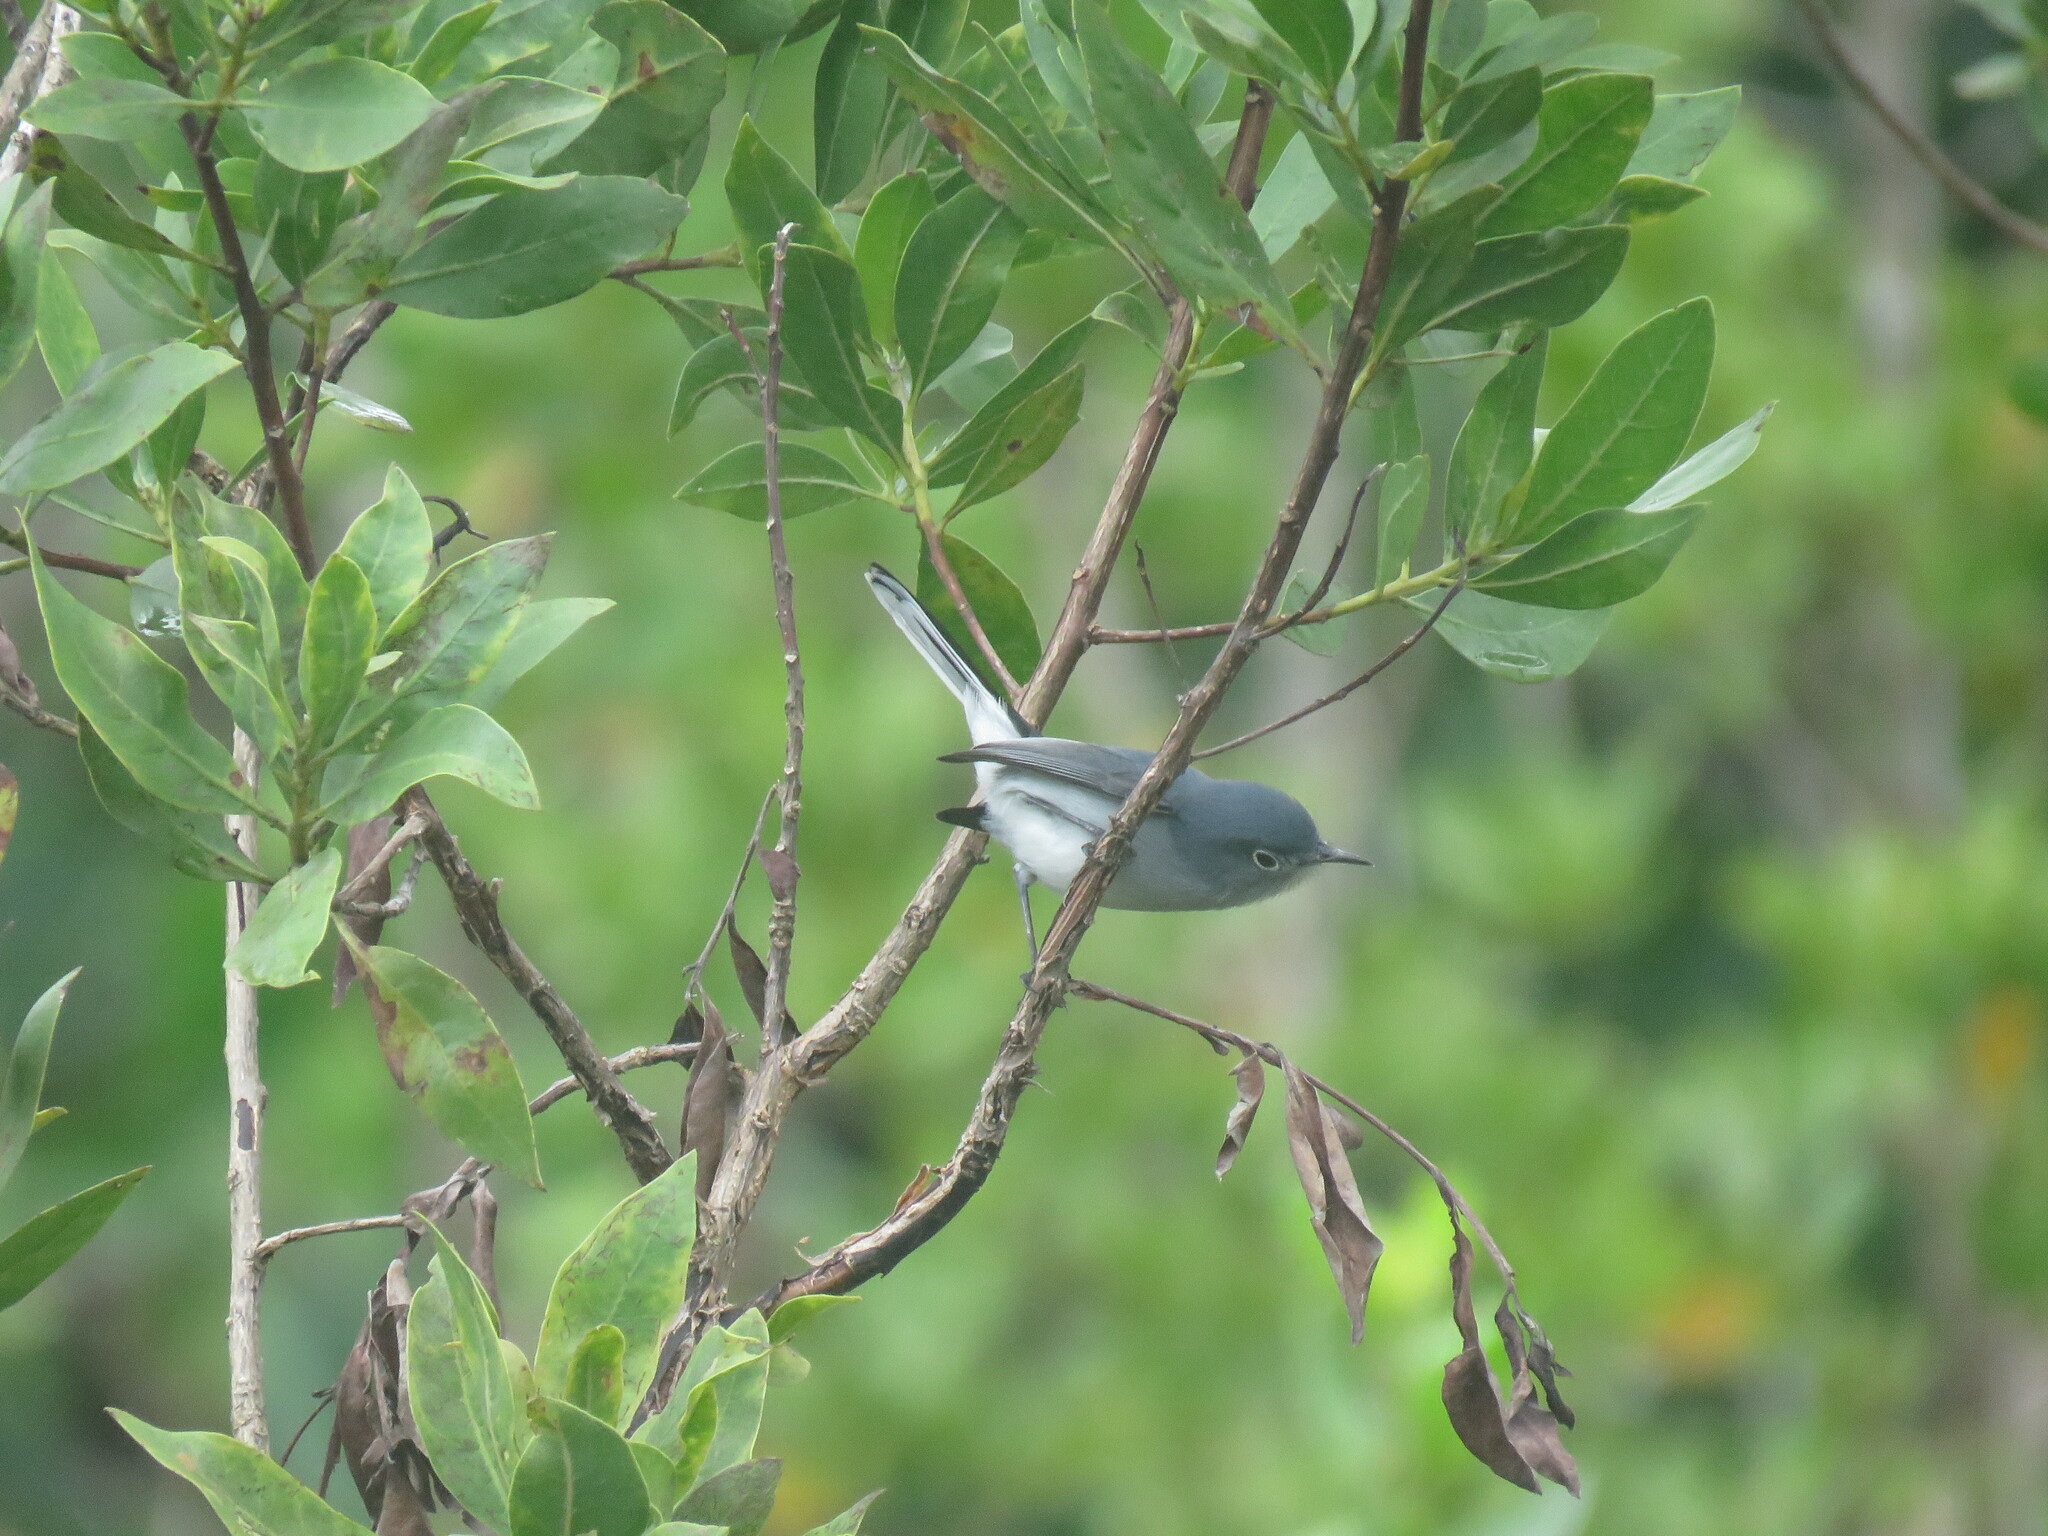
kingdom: Animalia
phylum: Chordata
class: Aves
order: Passeriformes
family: Polioptilidae
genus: Polioptila
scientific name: Polioptila caerulea
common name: Blue-gray gnatcatcher
